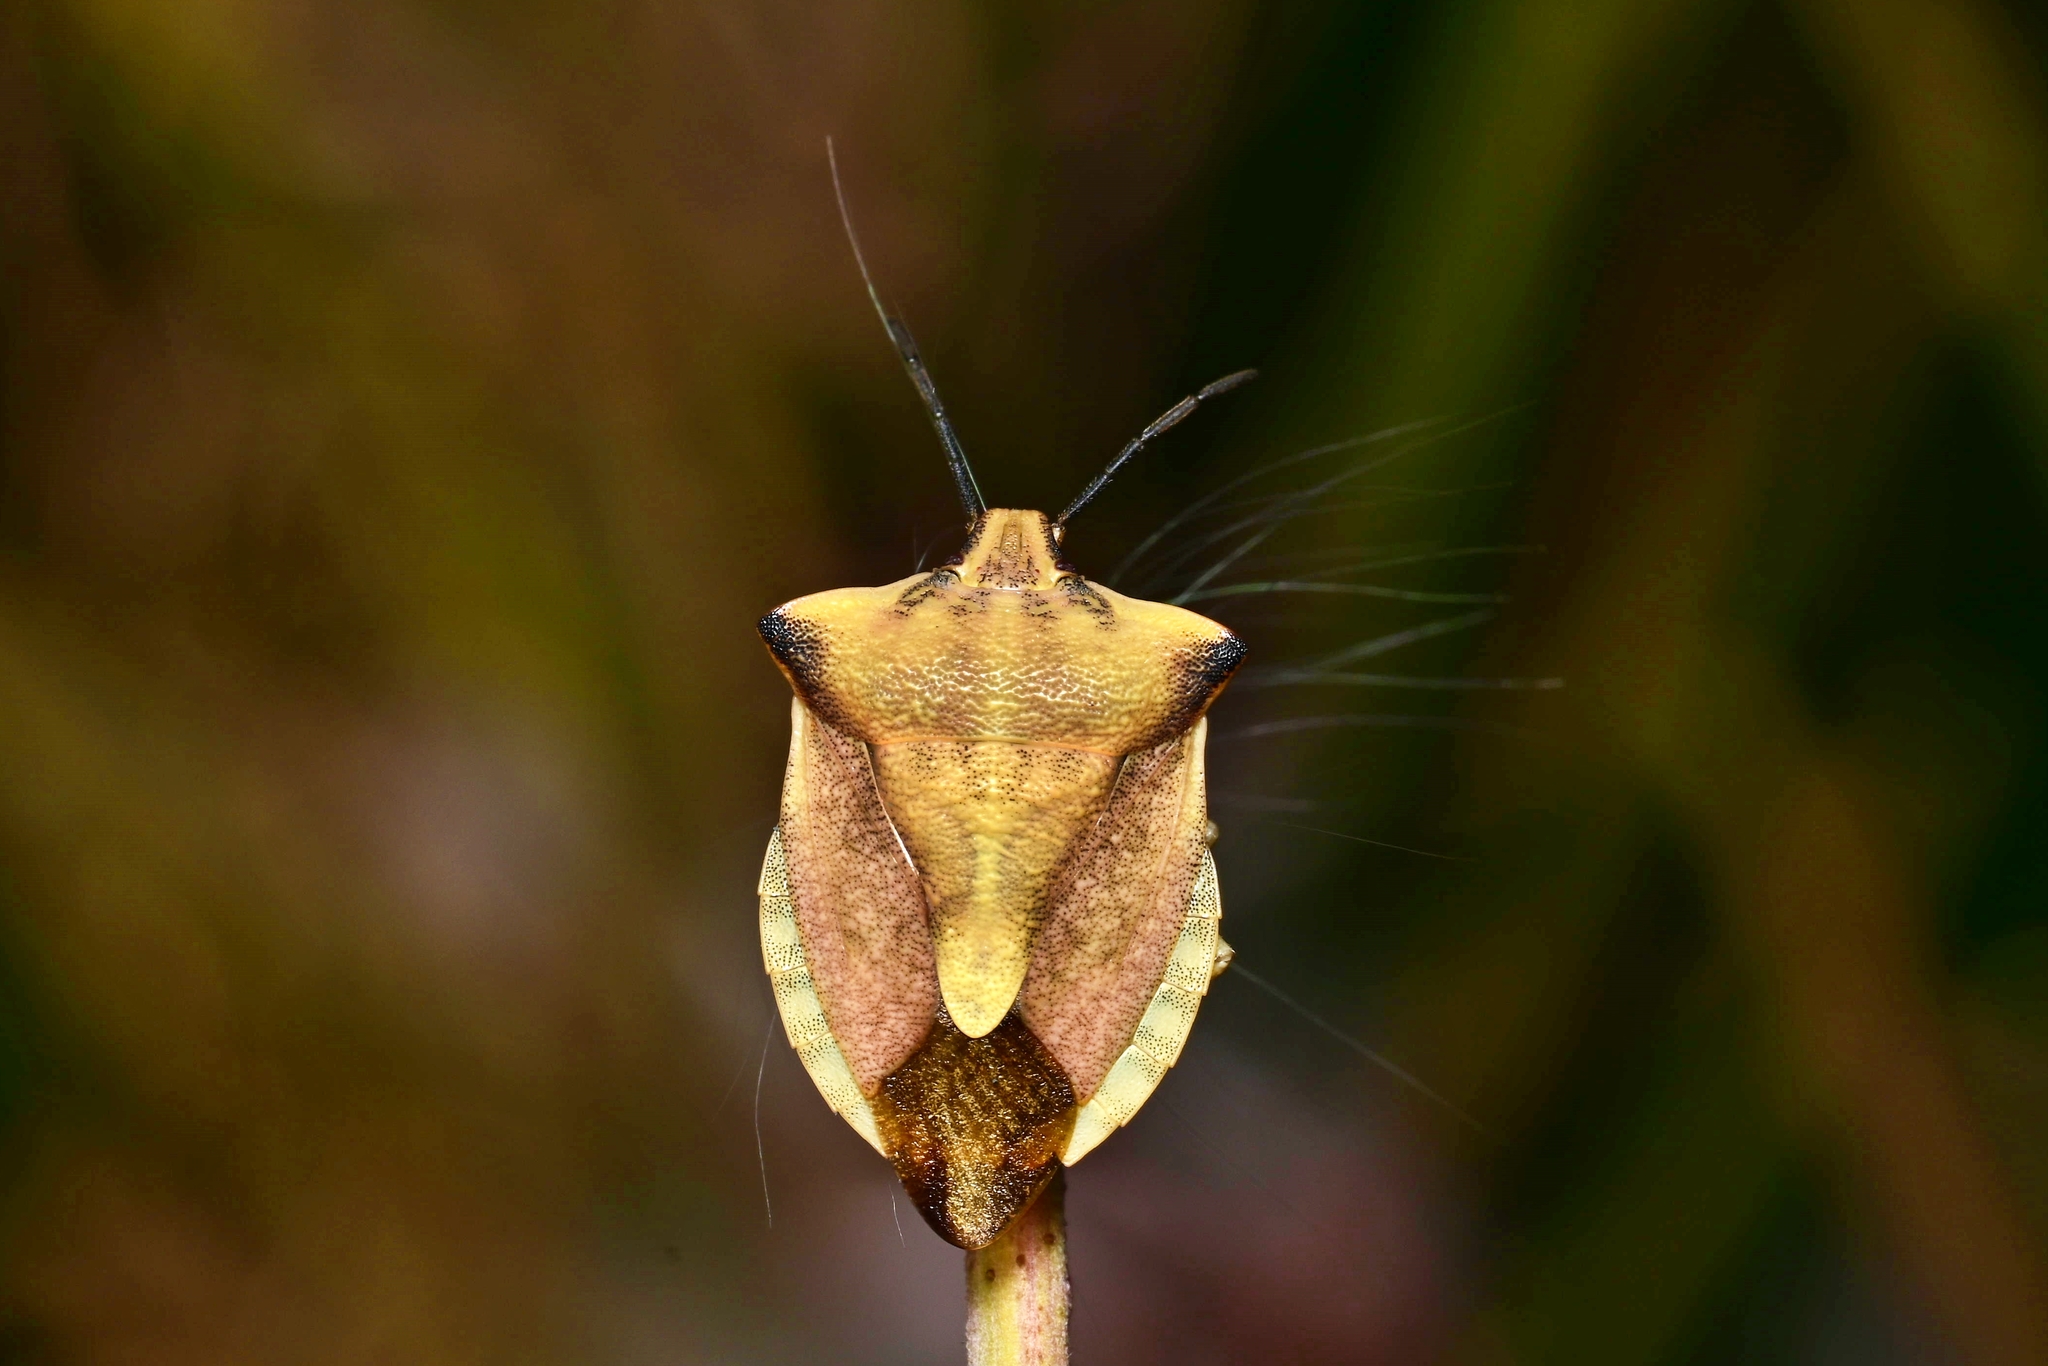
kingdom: Animalia
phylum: Arthropoda
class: Insecta
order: Hemiptera
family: Pentatomidae
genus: Carpocoris
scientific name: Carpocoris fuscispinus
